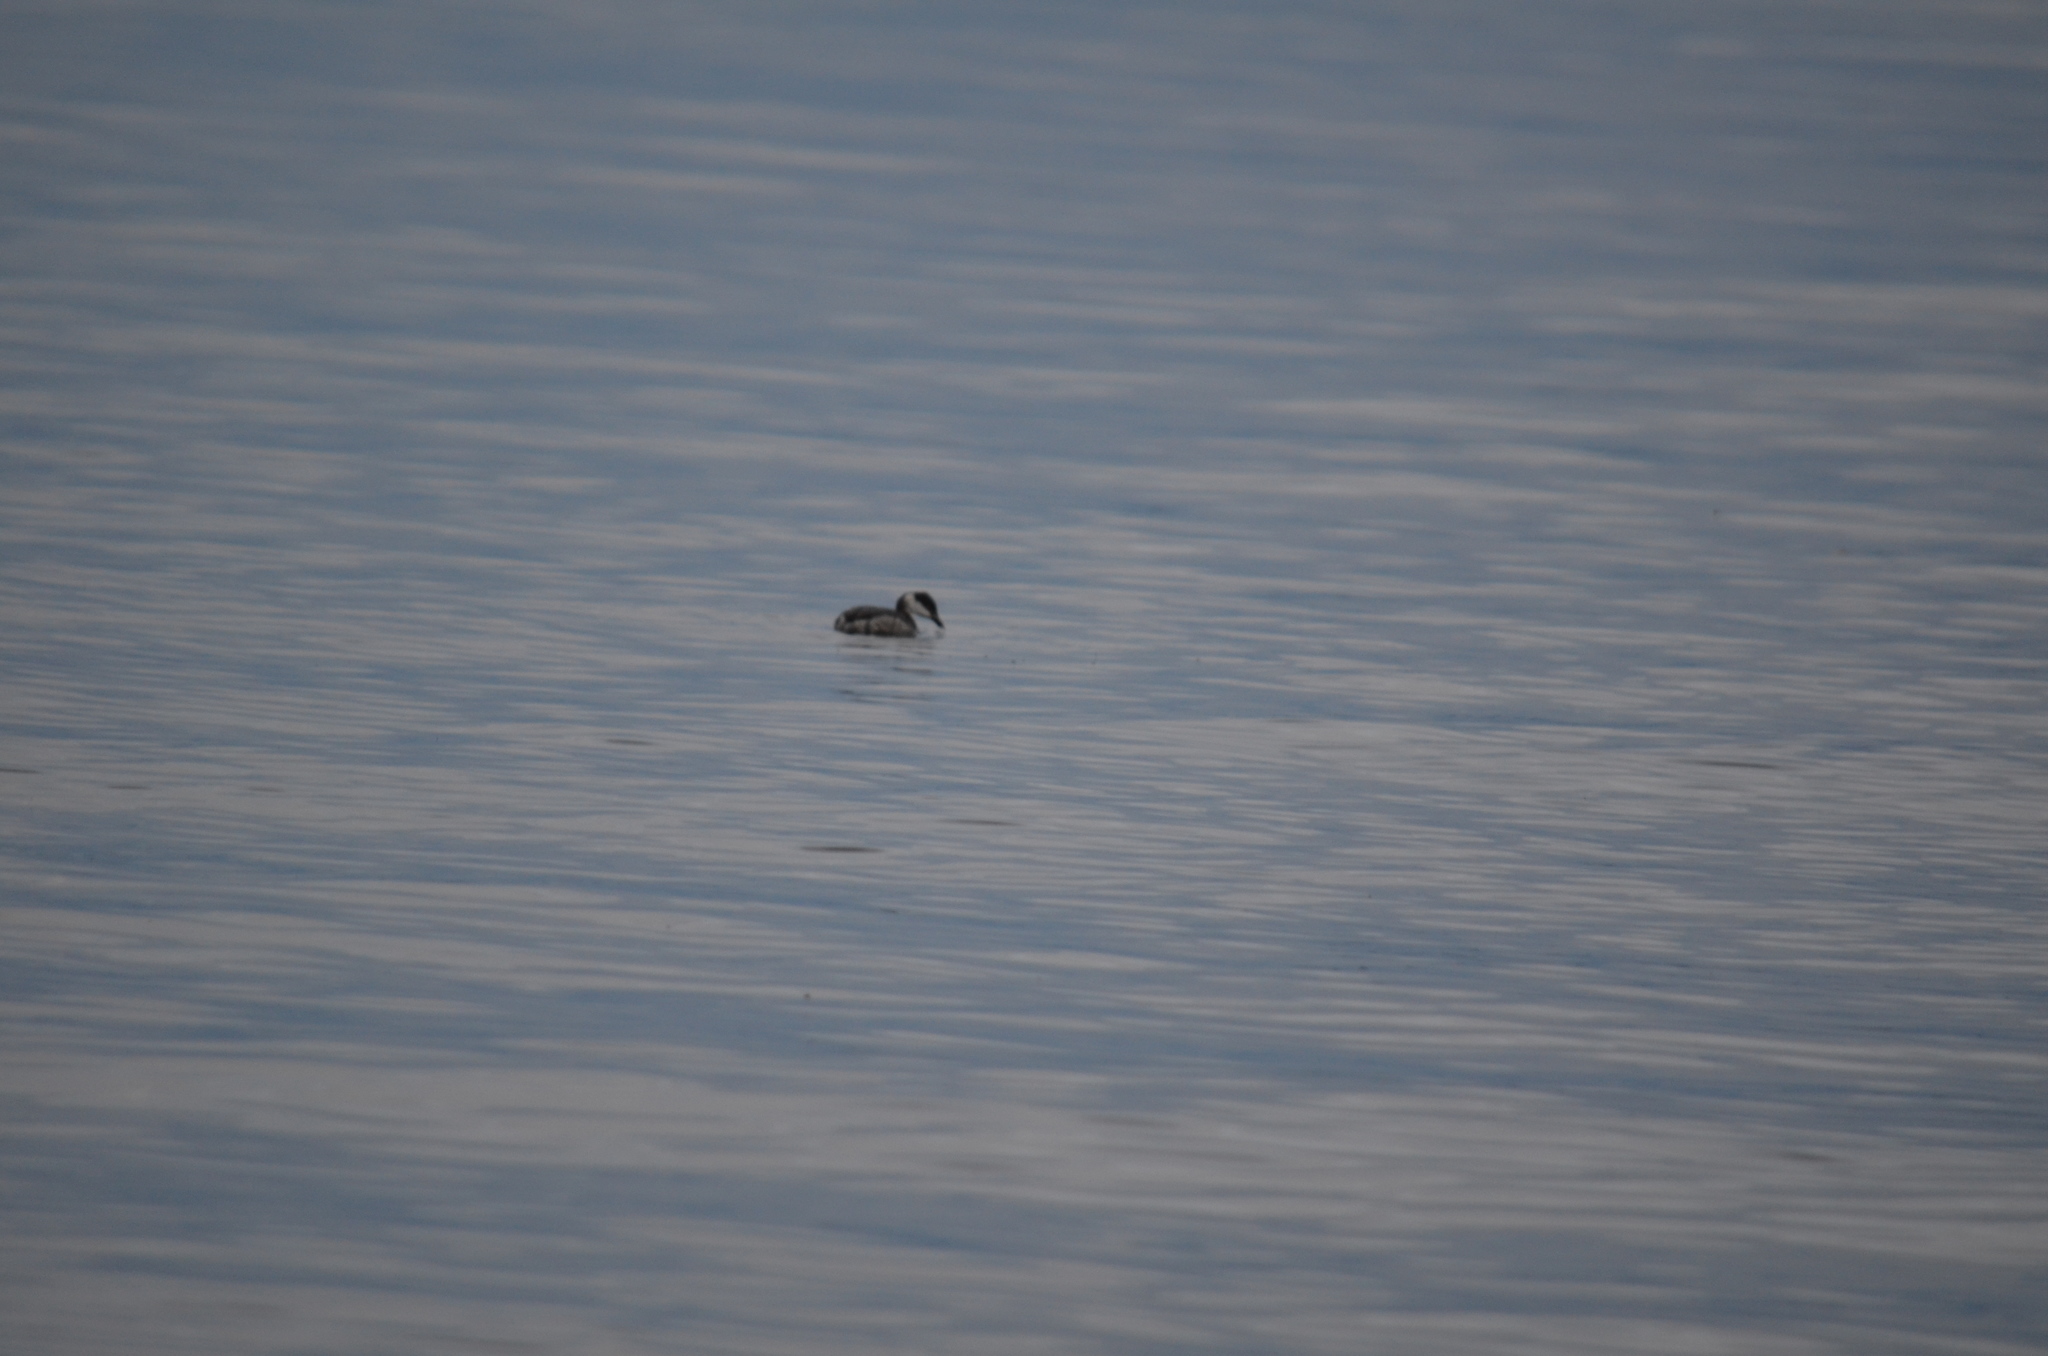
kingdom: Animalia
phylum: Chordata
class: Aves
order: Podicipediformes
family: Podicipedidae
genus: Podiceps
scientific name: Podiceps auritus
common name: Horned grebe
